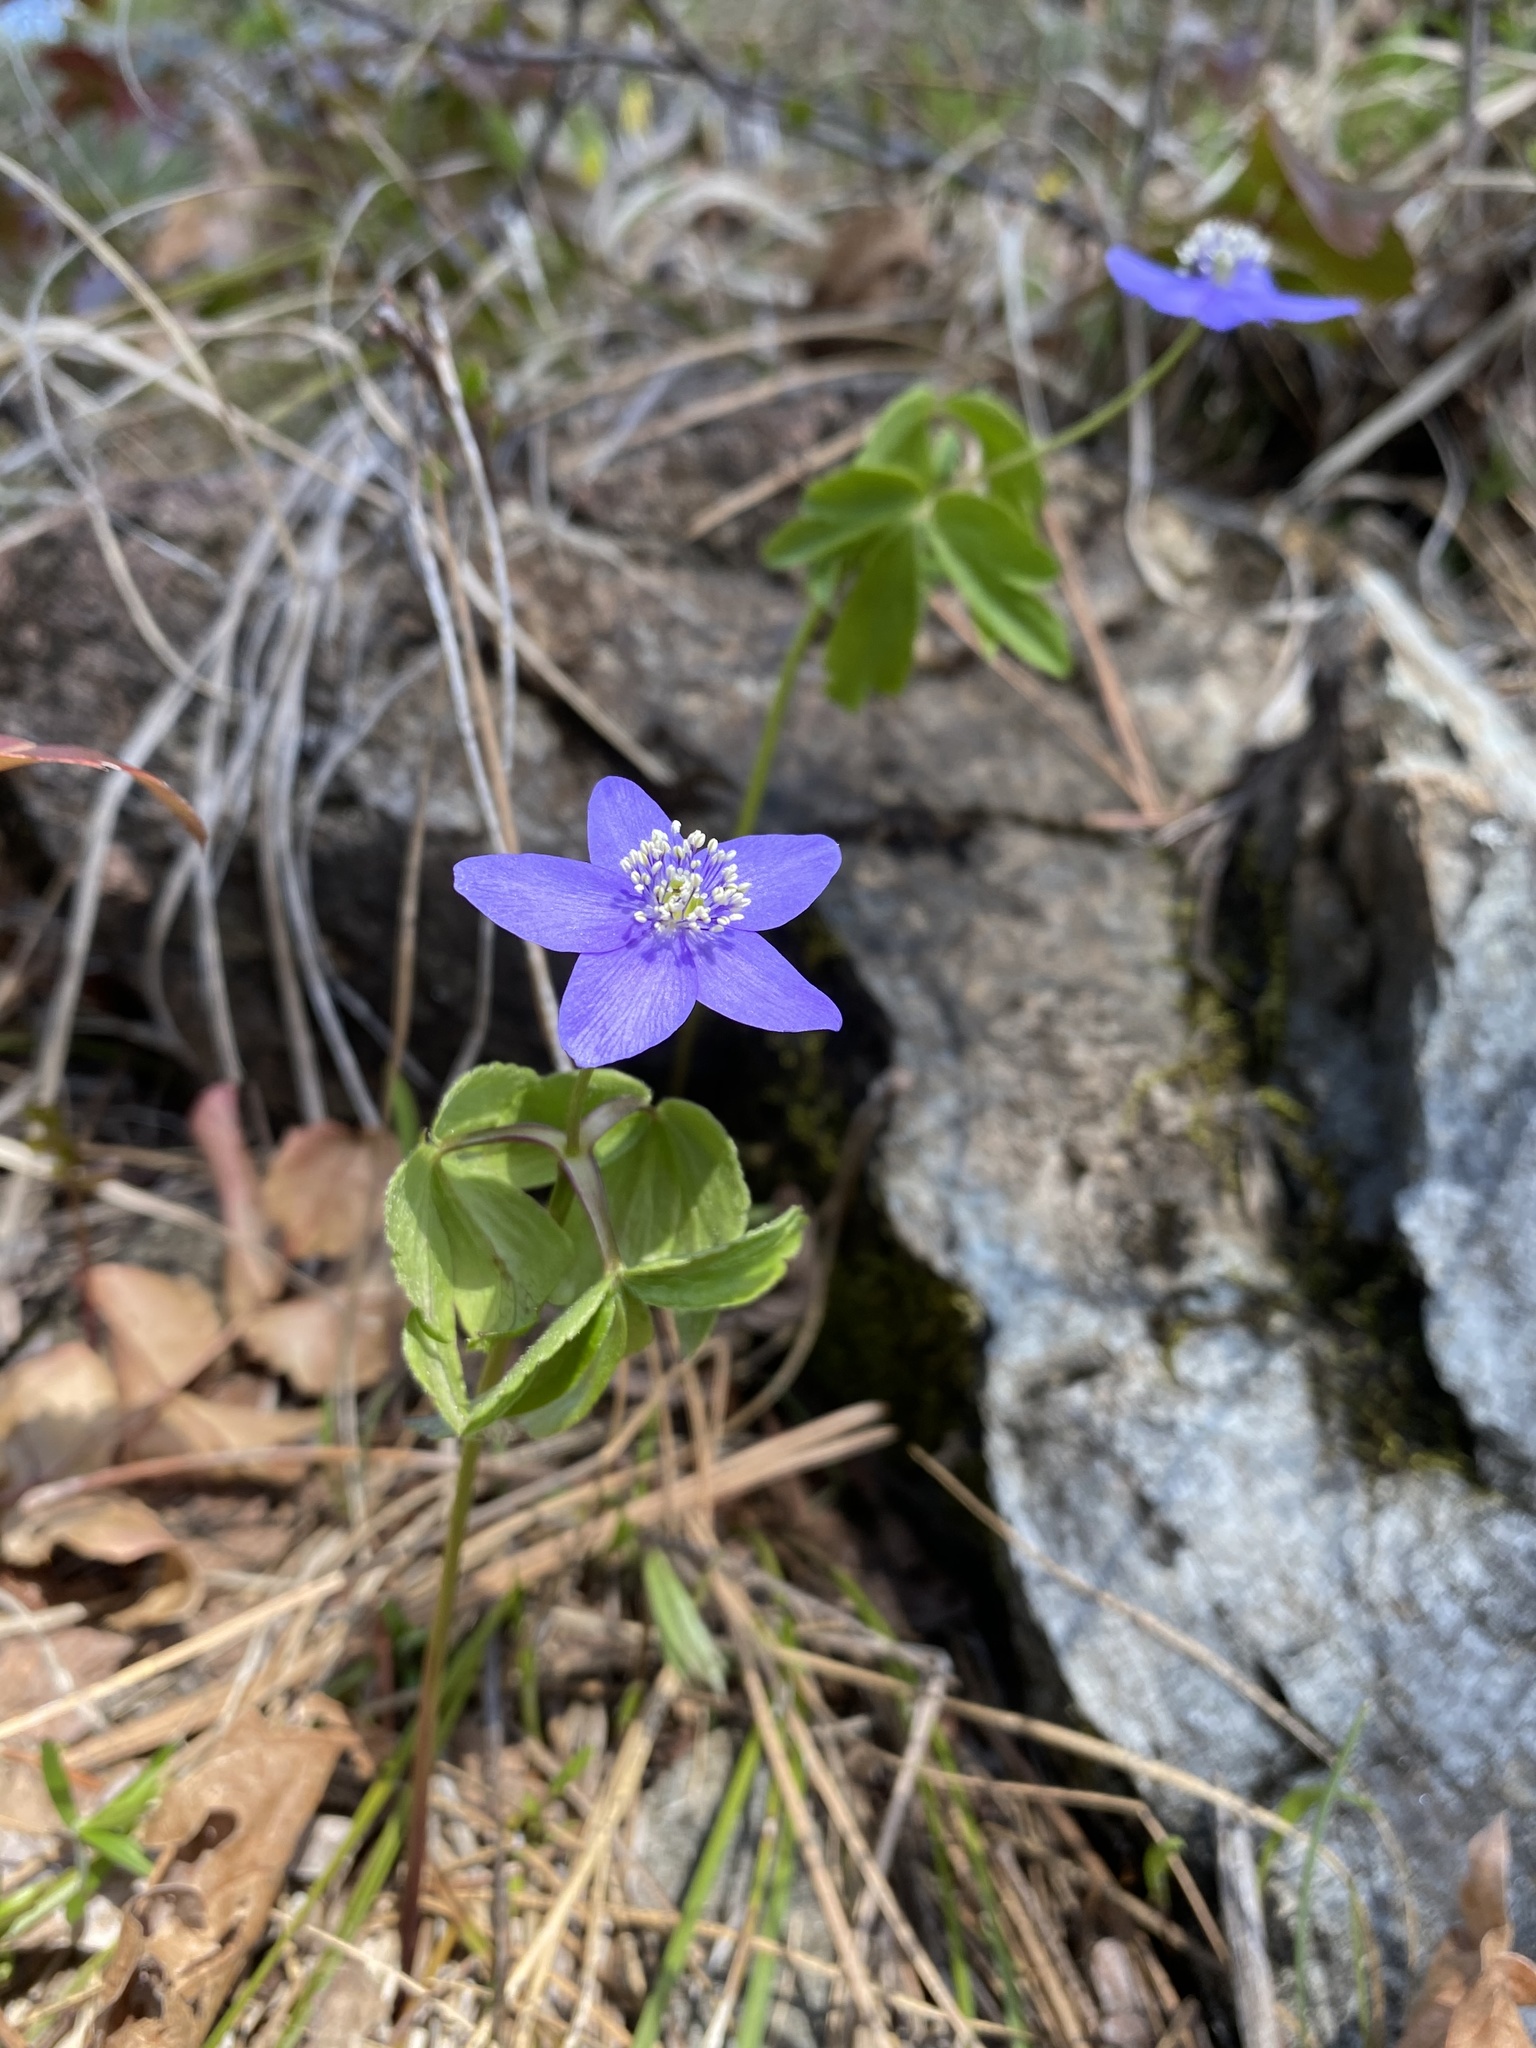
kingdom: Plantae
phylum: Tracheophyta
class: Magnoliopsida
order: Ranunculales
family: Ranunculaceae
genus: Anemone
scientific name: Anemone oregana
